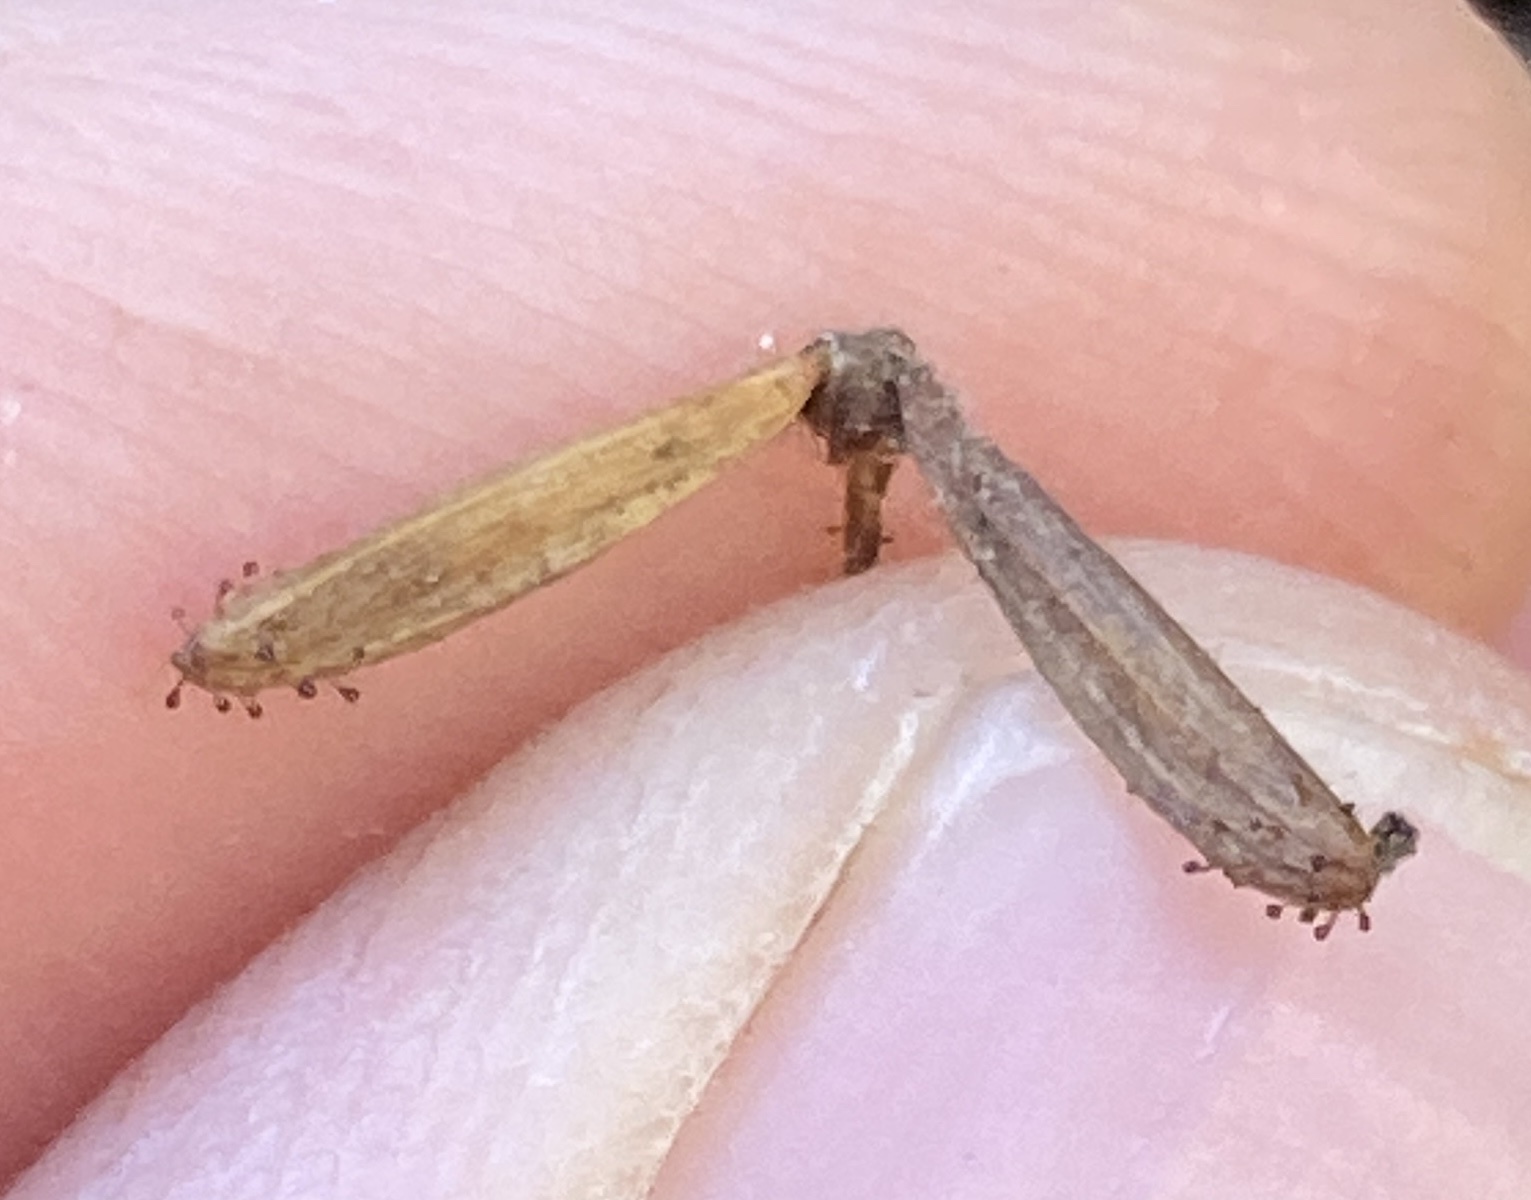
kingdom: Plantae
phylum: Tracheophyta
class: Magnoliopsida
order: Asterales
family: Asteraceae
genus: Adenocaulon
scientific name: Adenocaulon bicolor
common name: Trailplant
